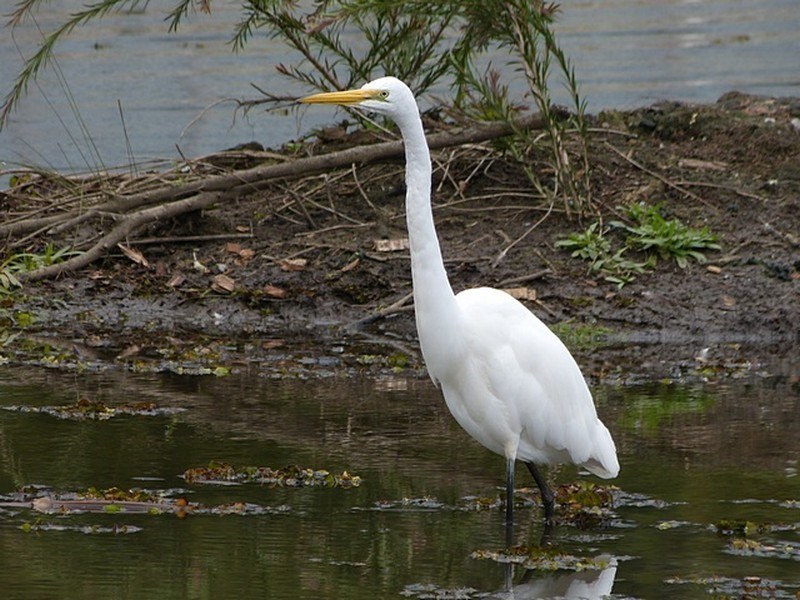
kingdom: Animalia
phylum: Chordata
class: Aves
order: Pelecaniformes
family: Ardeidae
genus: Ardea
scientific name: Ardea alba
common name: Great egret
